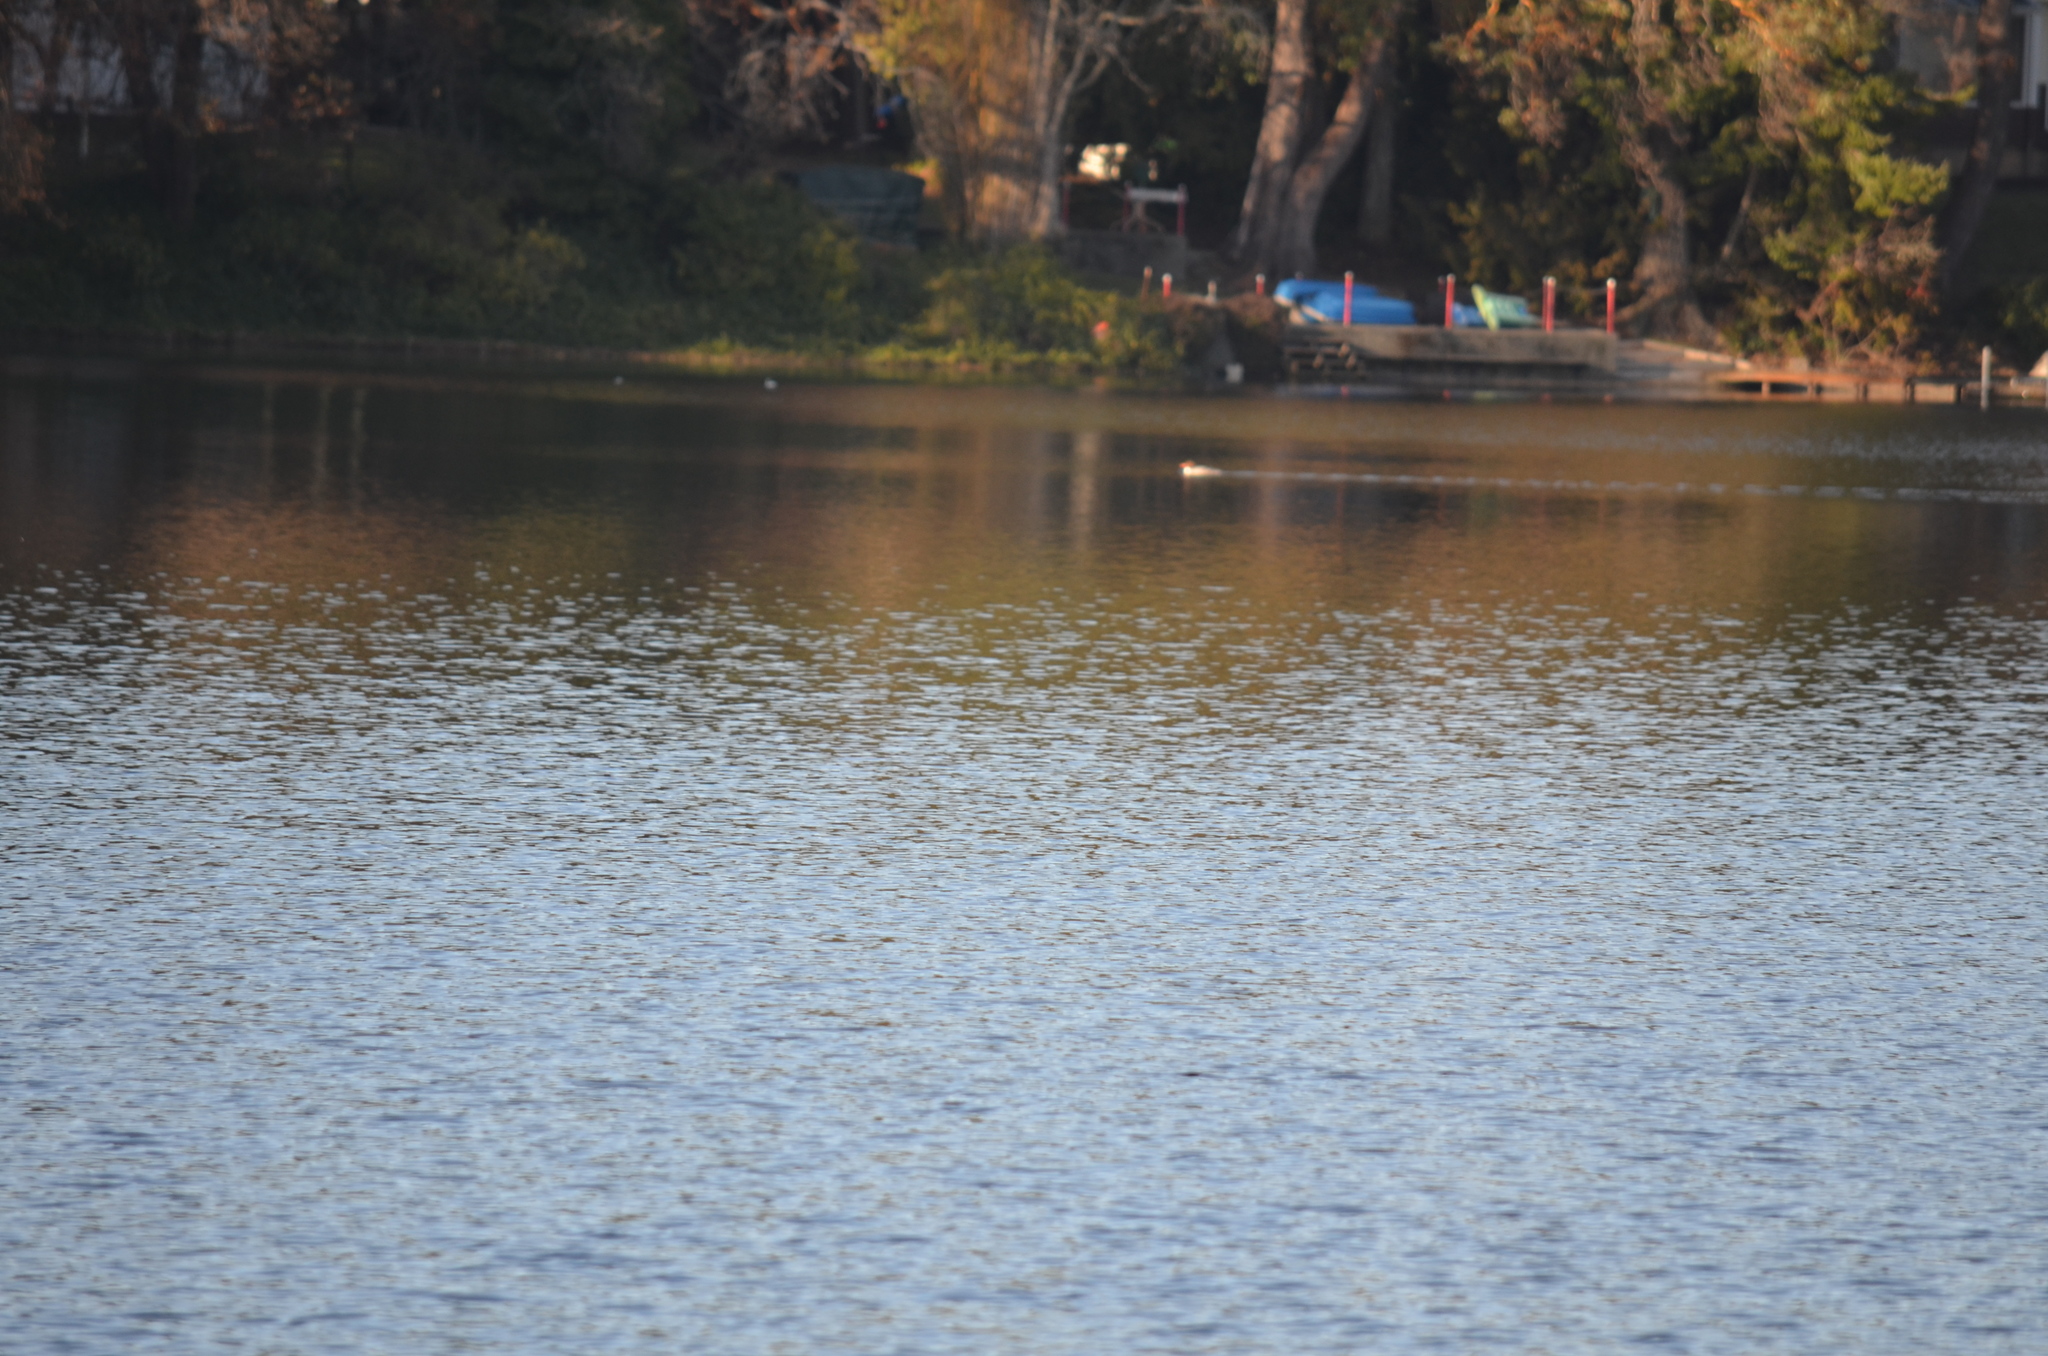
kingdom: Animalia
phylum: Chordata
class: Aves
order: Anseriformes
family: Anatidae
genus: Mergus
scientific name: Mergus merganser
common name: Common merganser
